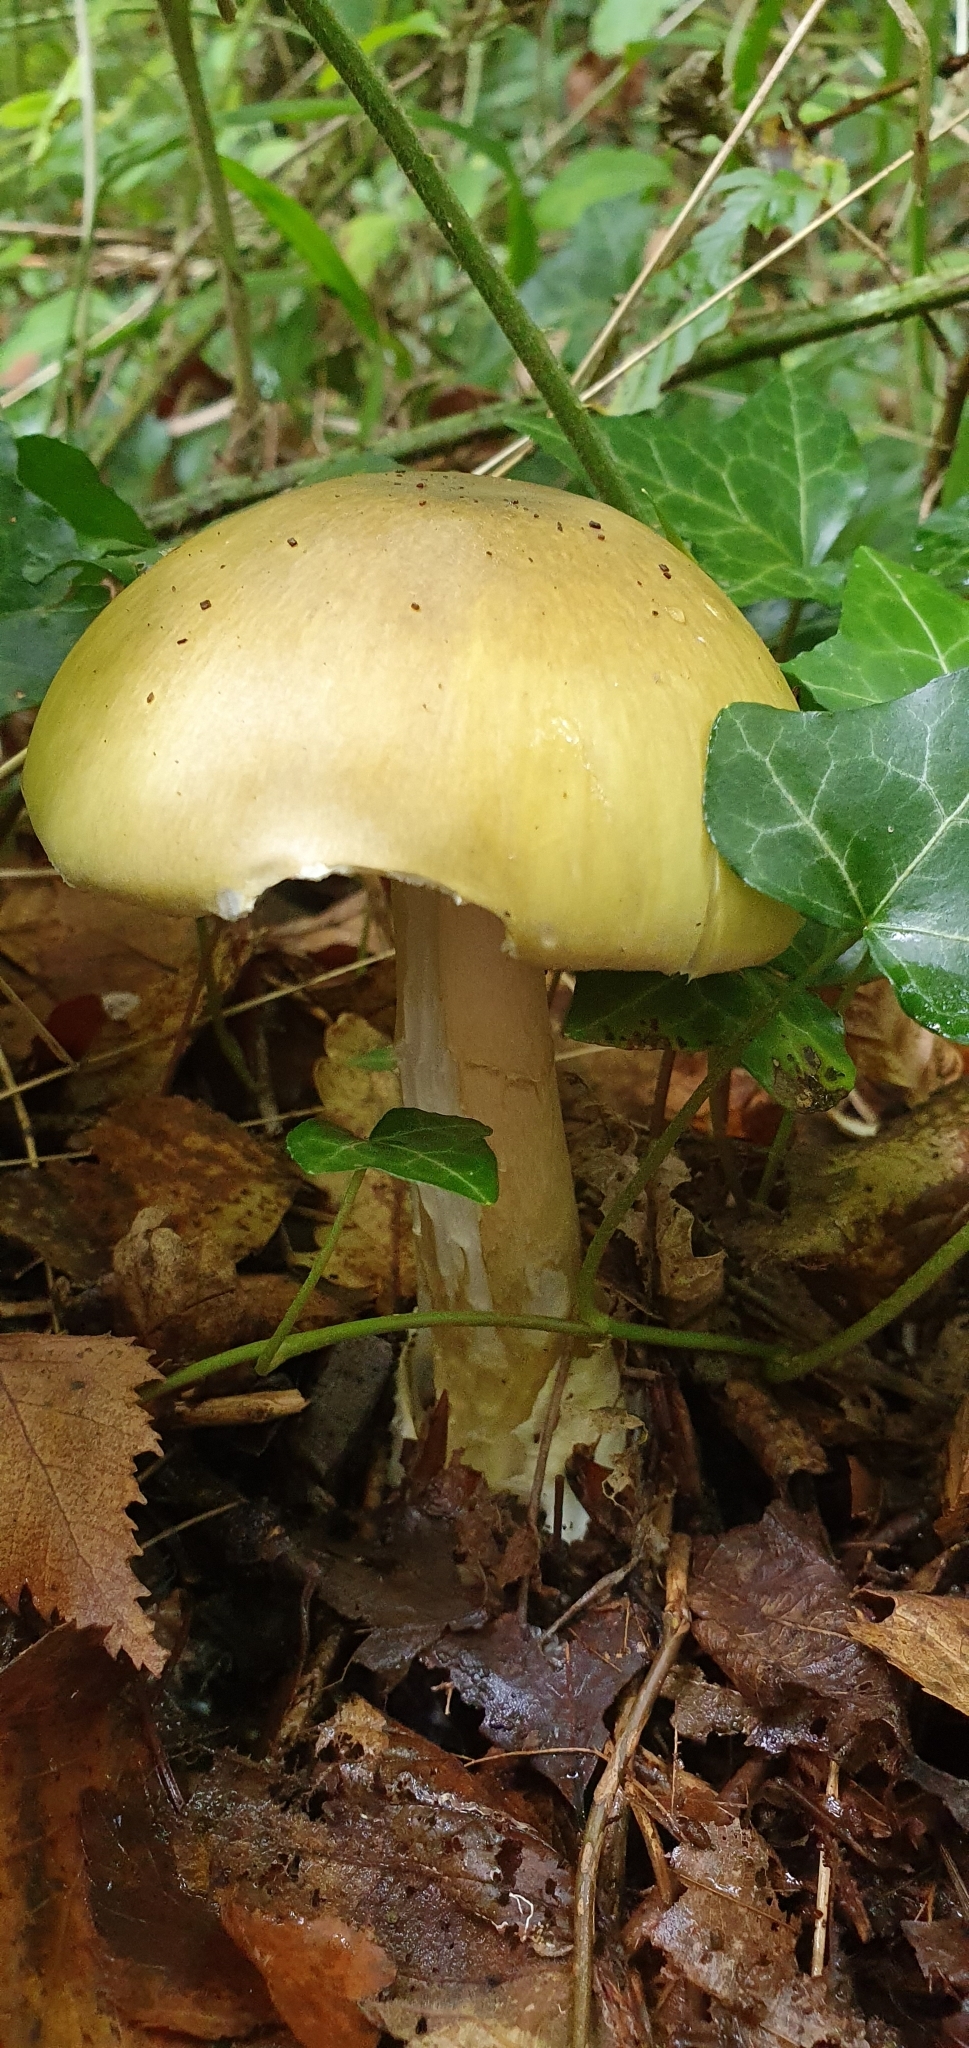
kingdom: Fungi
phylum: Basidiomycota
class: Agaricomycetes
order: Agaricales
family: Amanitaceae
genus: Amanita
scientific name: Amanita phalloides
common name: Death cap
